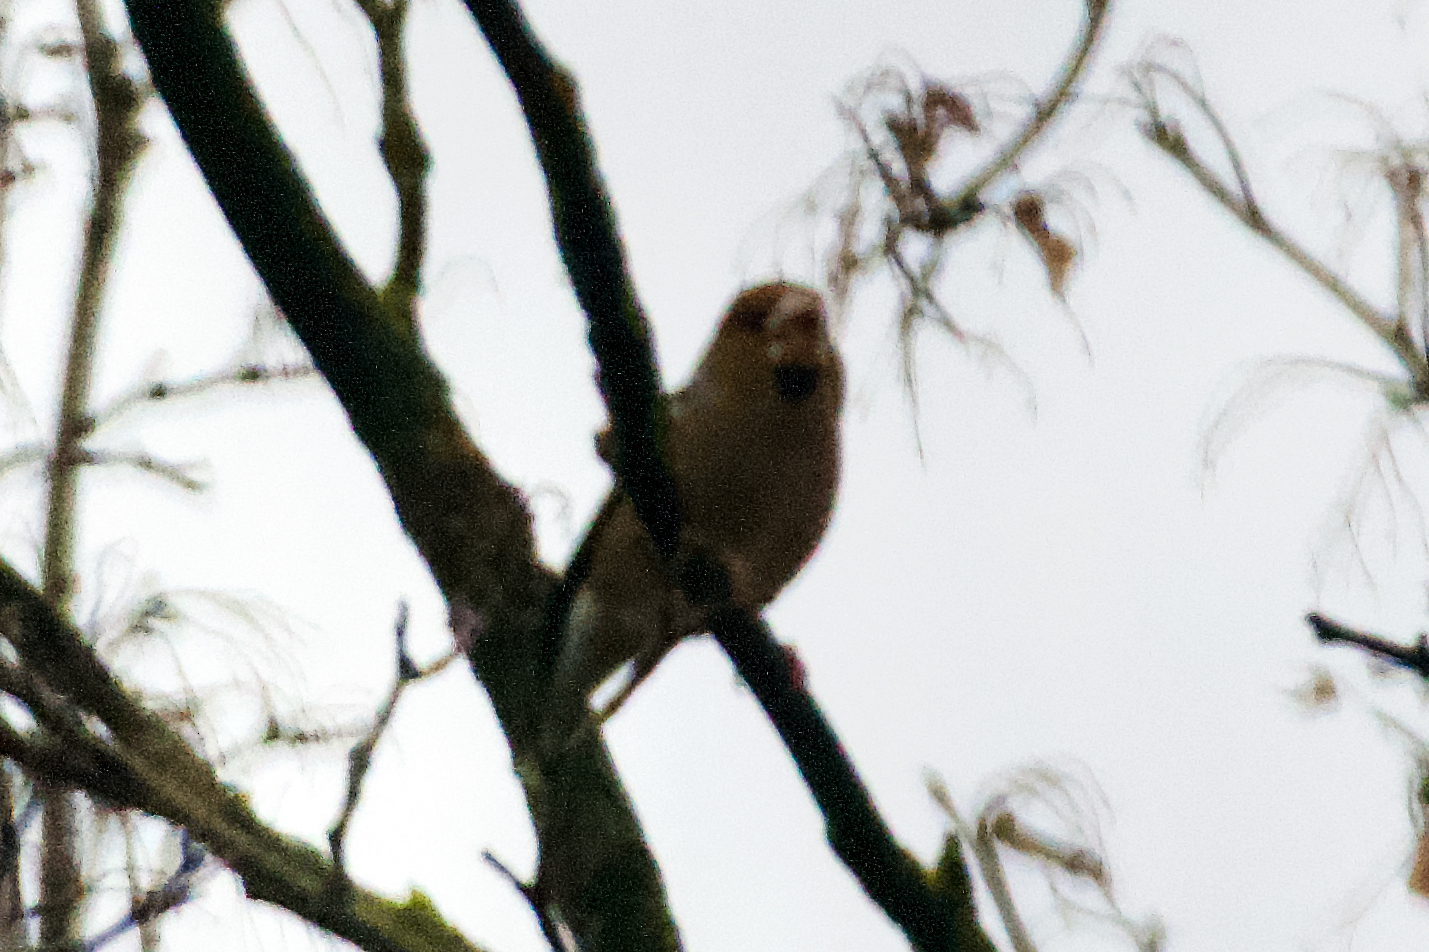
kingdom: Animalia
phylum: Chordata
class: Aves
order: Passeriformes
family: Fringillidae
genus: Coccothraustes
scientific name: Coccothraustes coccothraustes
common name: Hawfinch
